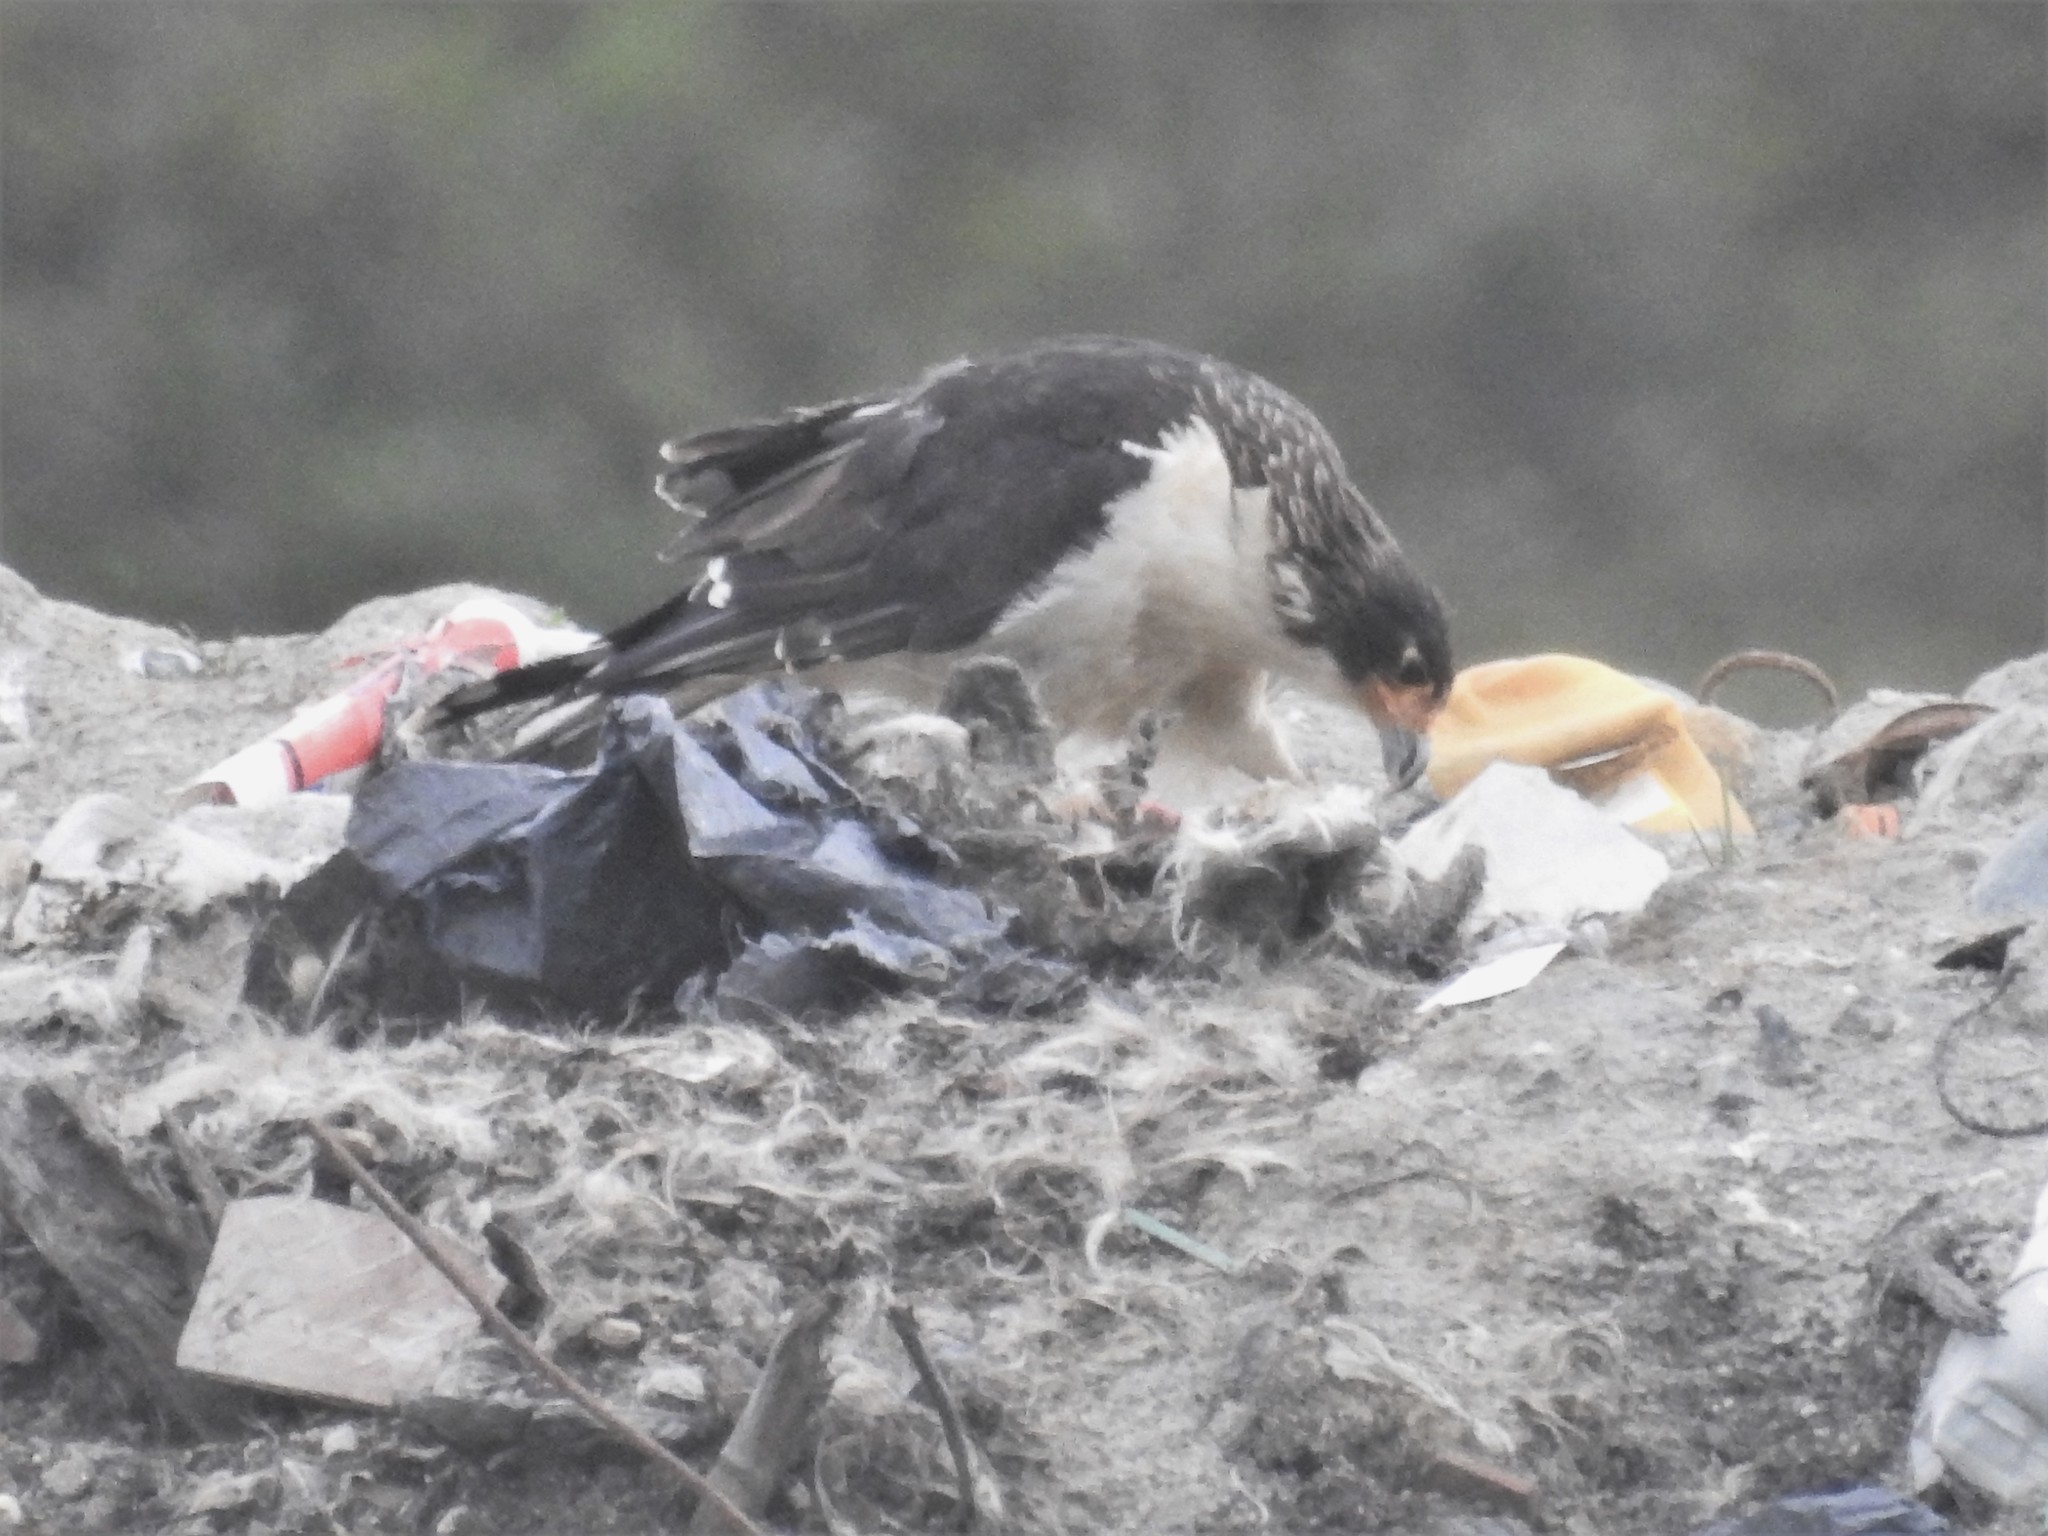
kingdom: Animalia
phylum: Chordata
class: Aves
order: Falconiformes
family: Falconidae
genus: Daptrius
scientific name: Daptrius
